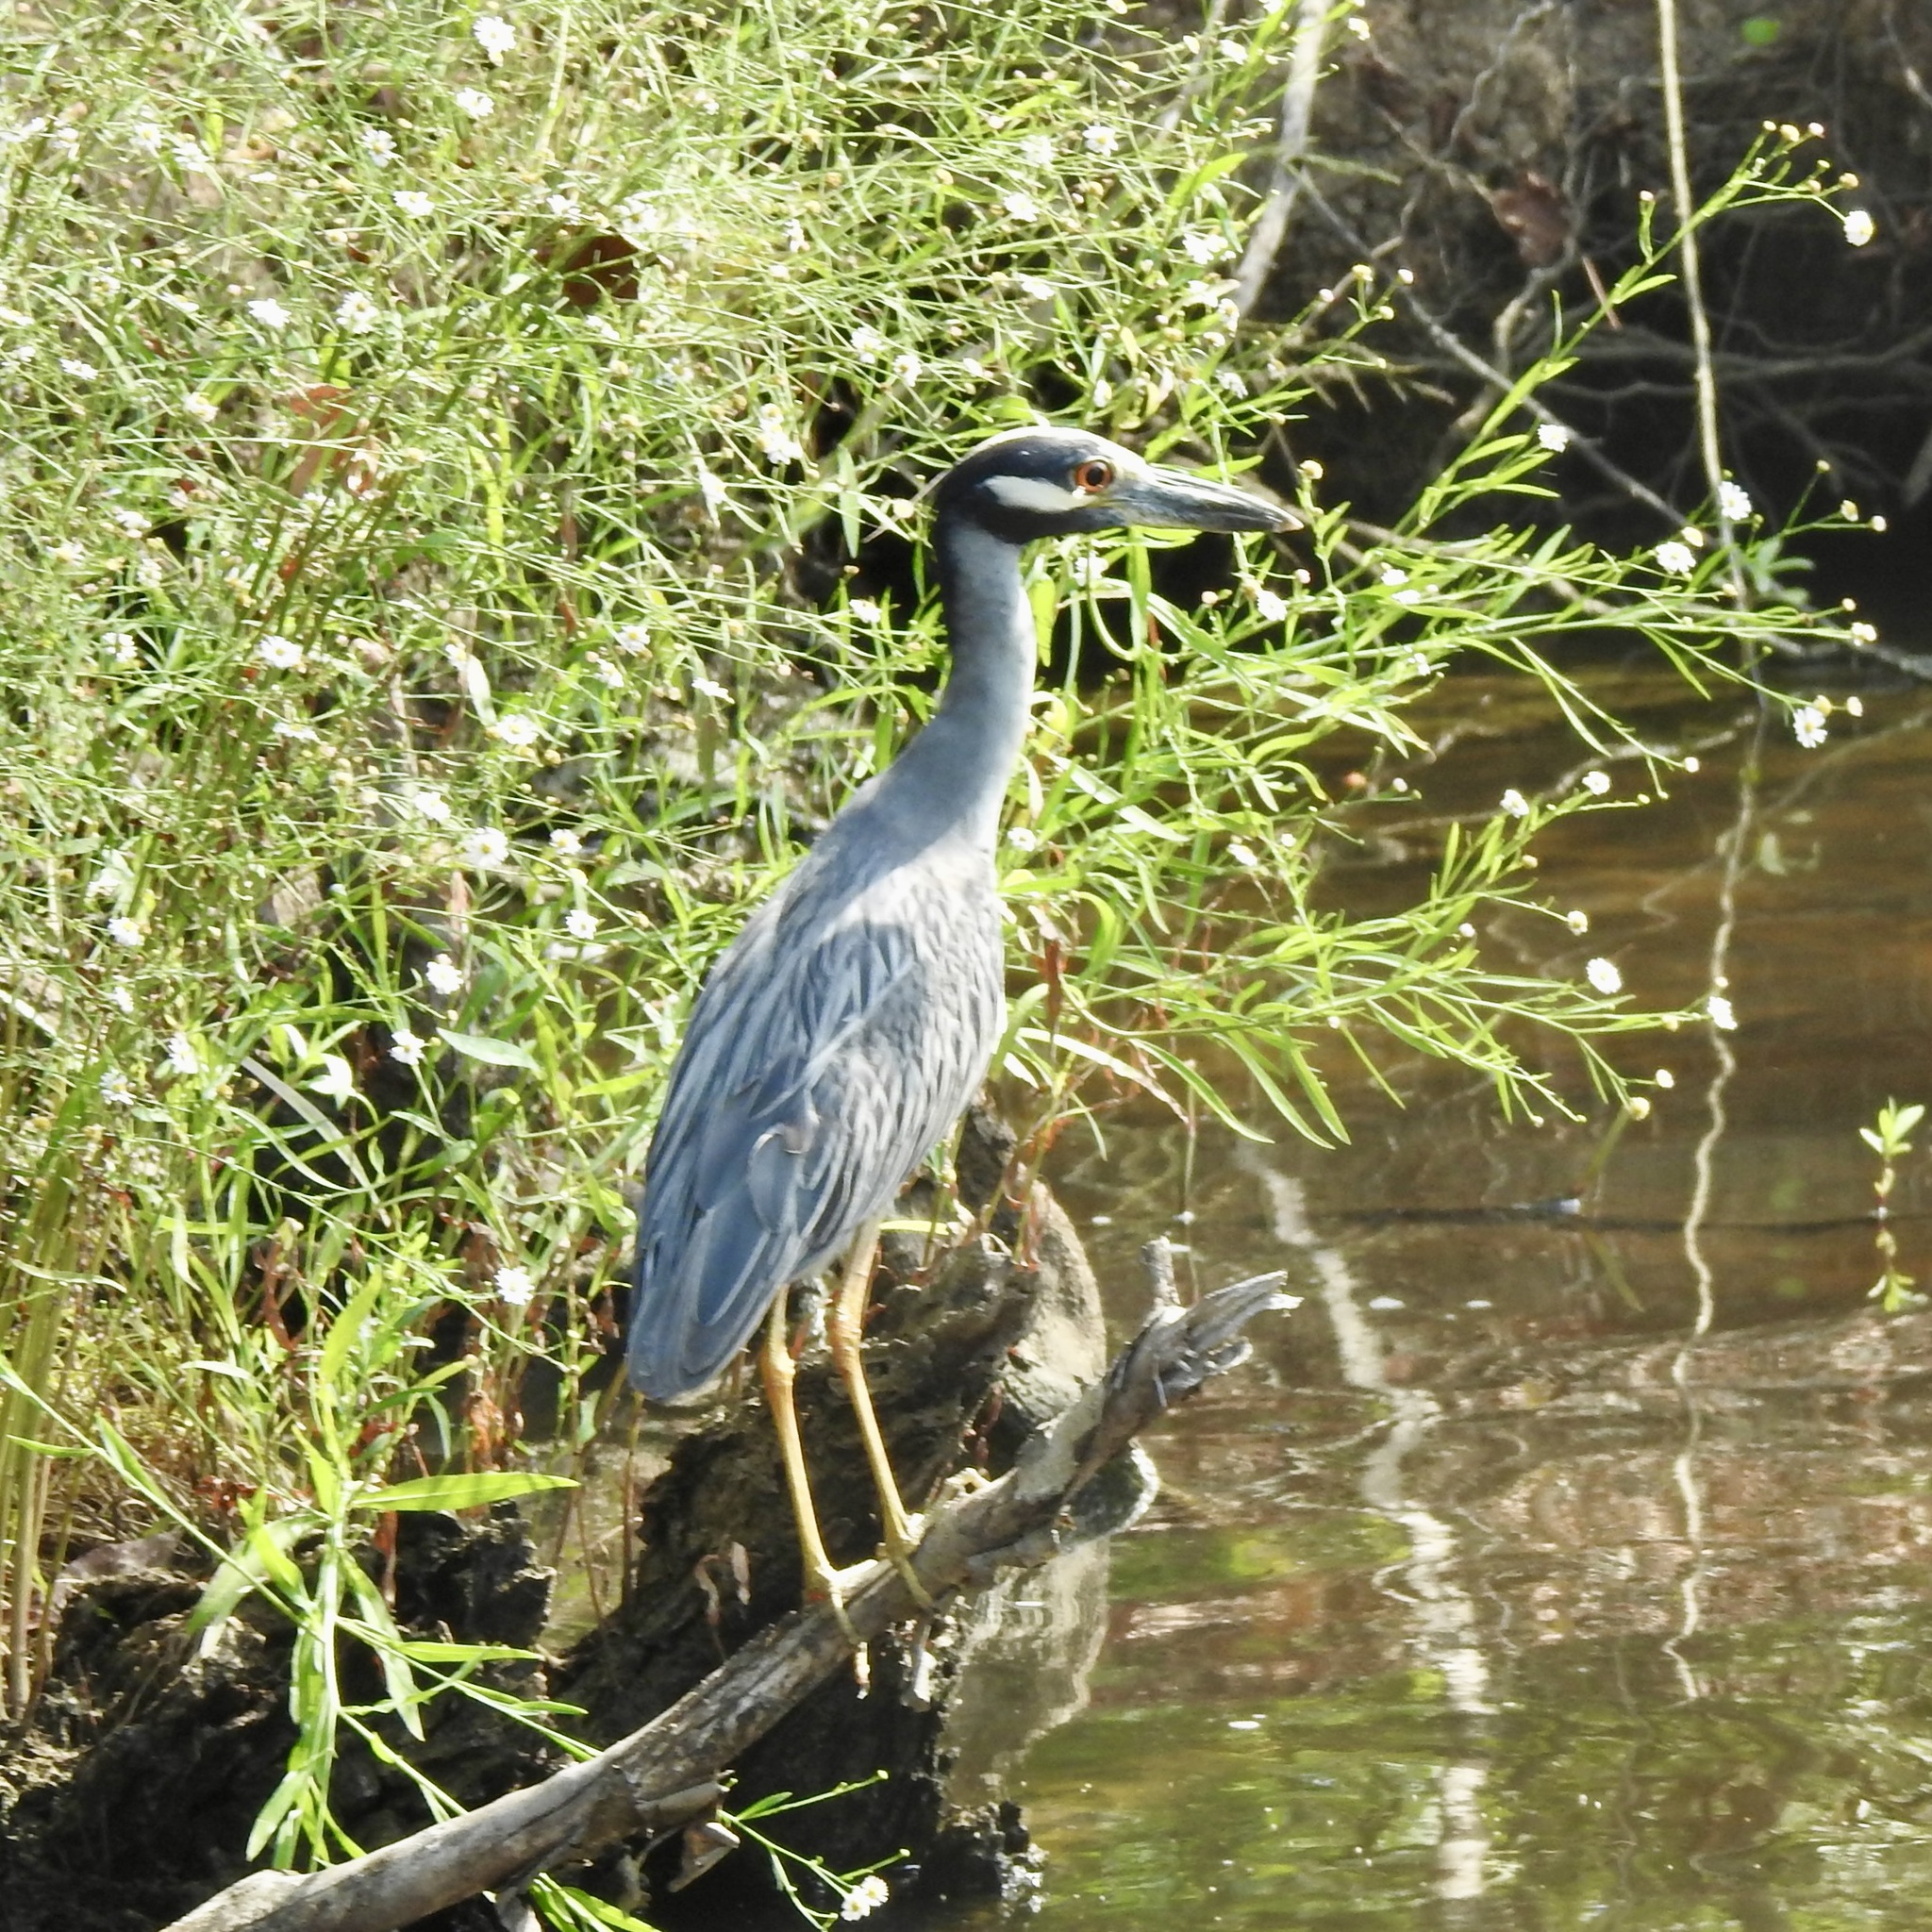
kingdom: Animalia
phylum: Chordata
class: Aves
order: Pelecaniformes
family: Ardeidae
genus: Nyctanassa
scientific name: Nyctanassa violacea
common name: Yellow-crowned night heron
